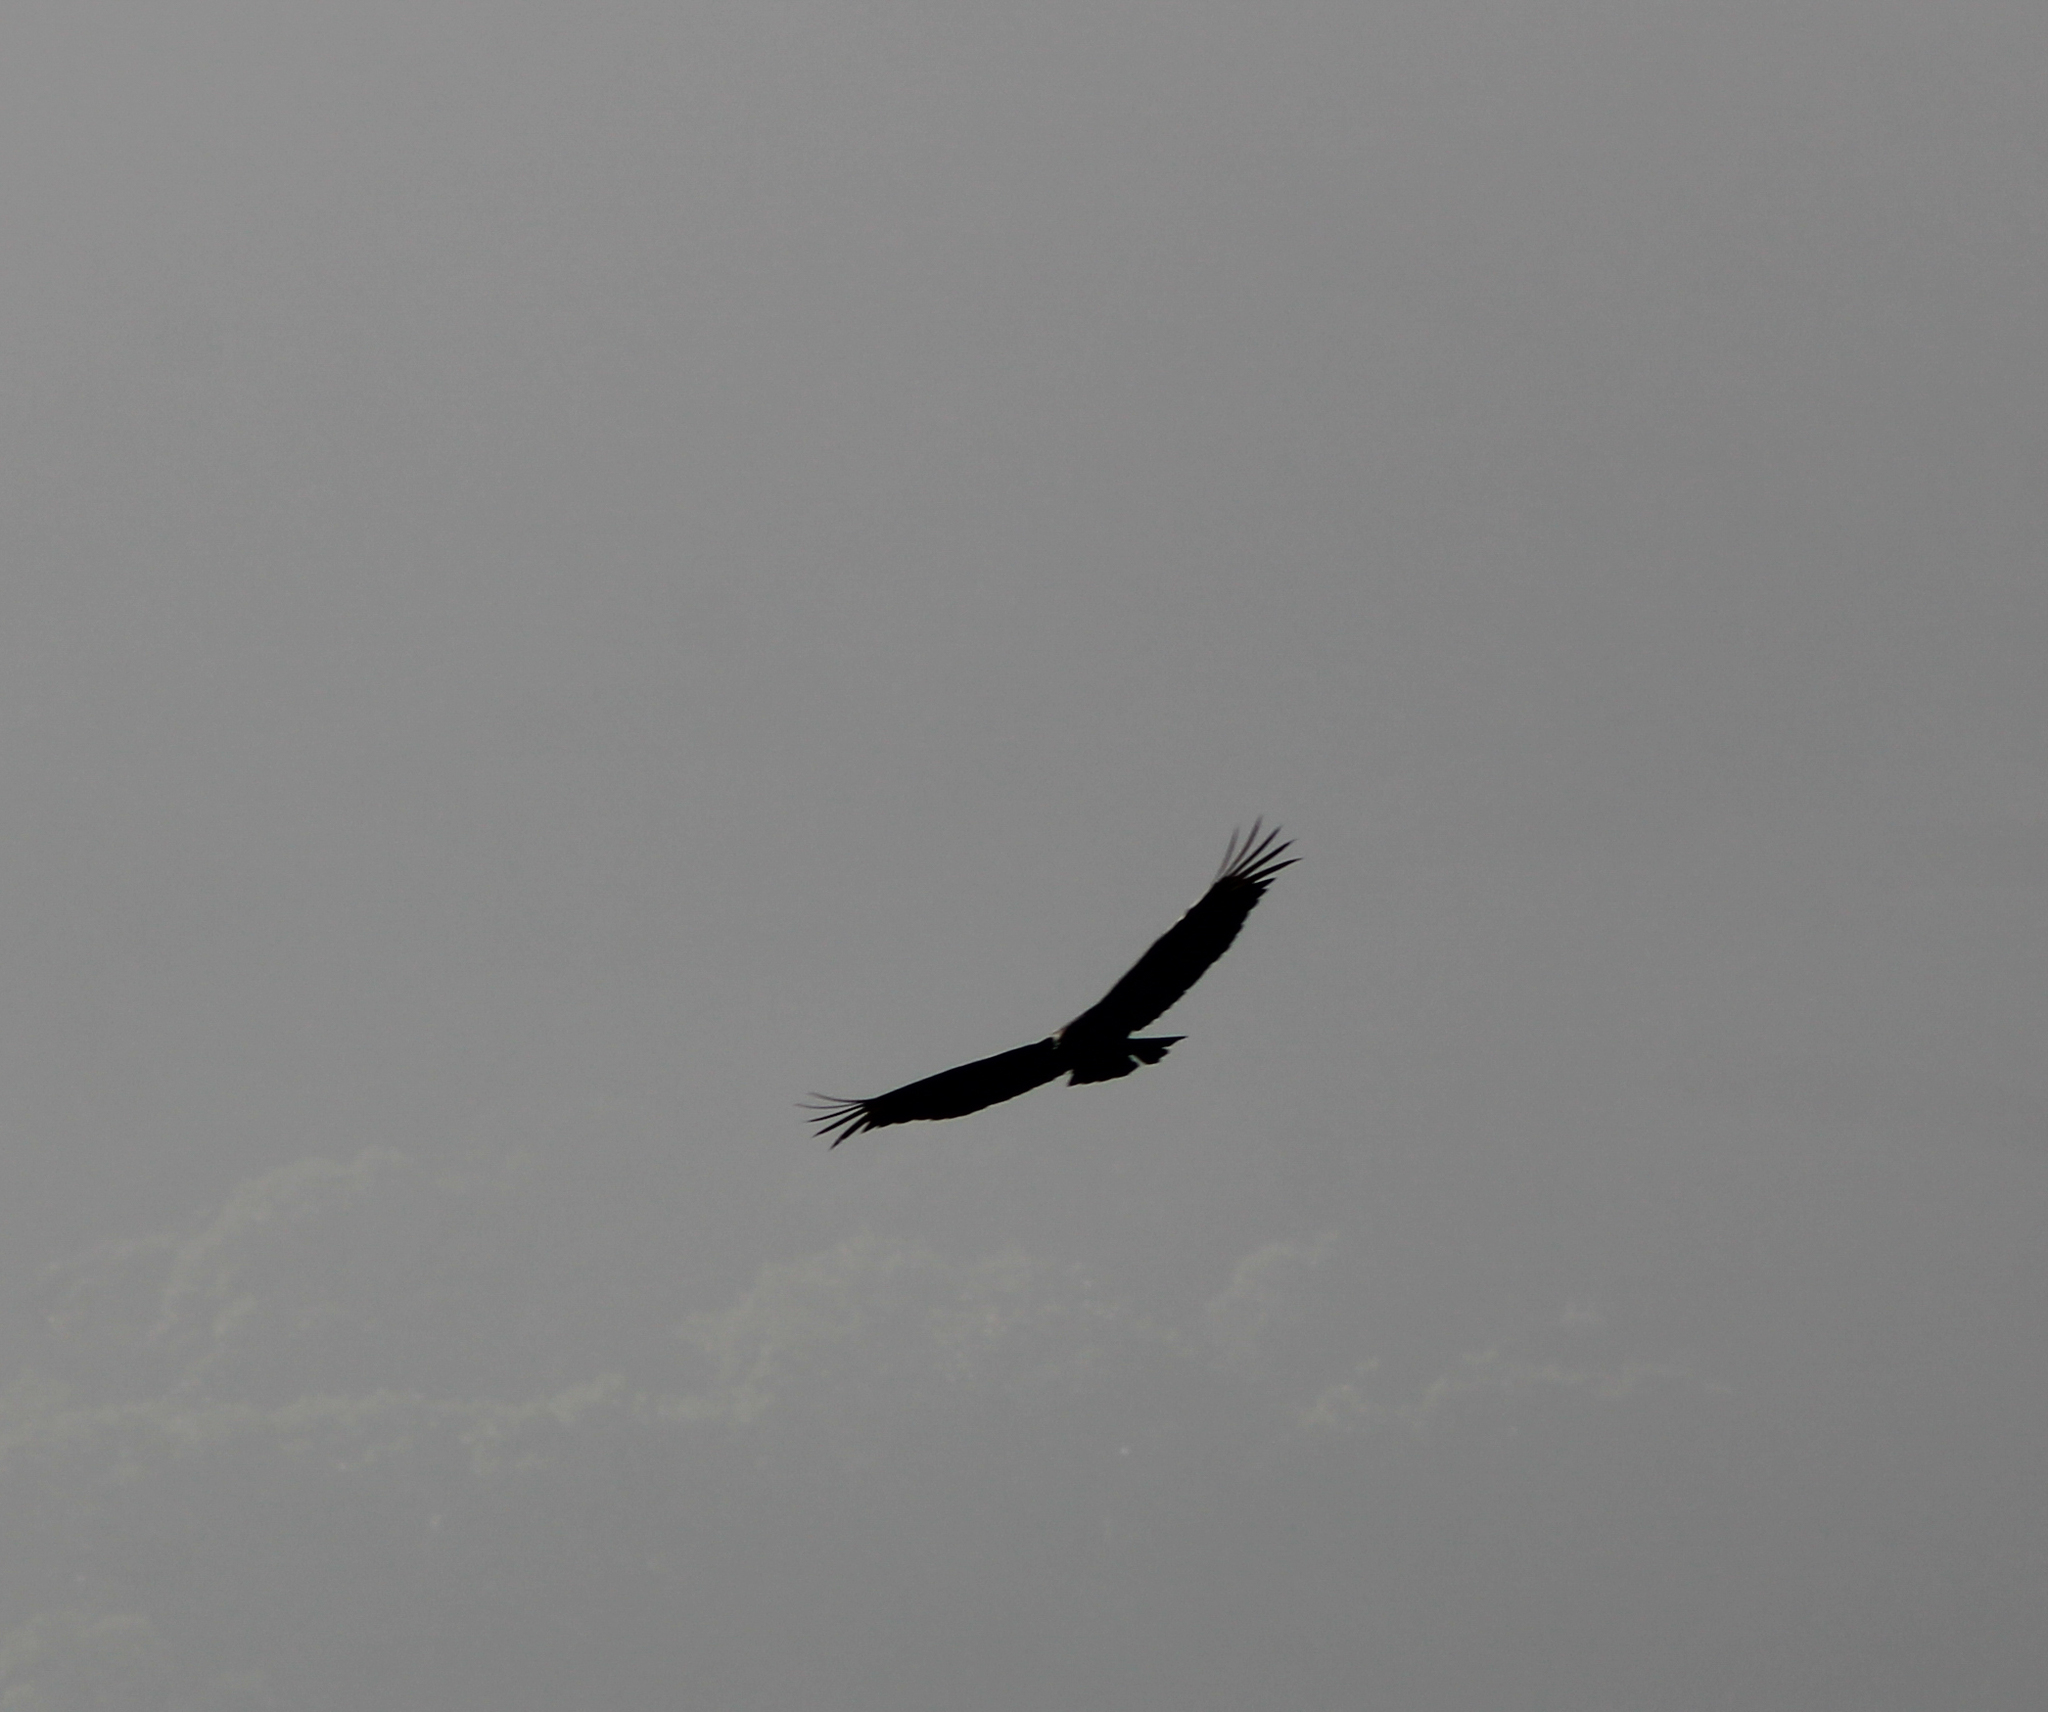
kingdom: Animalia
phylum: Chordata
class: Aves
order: Accipitriformes
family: Cathartidae
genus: Coragyps
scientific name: Coragyps atratus
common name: Black vulture
